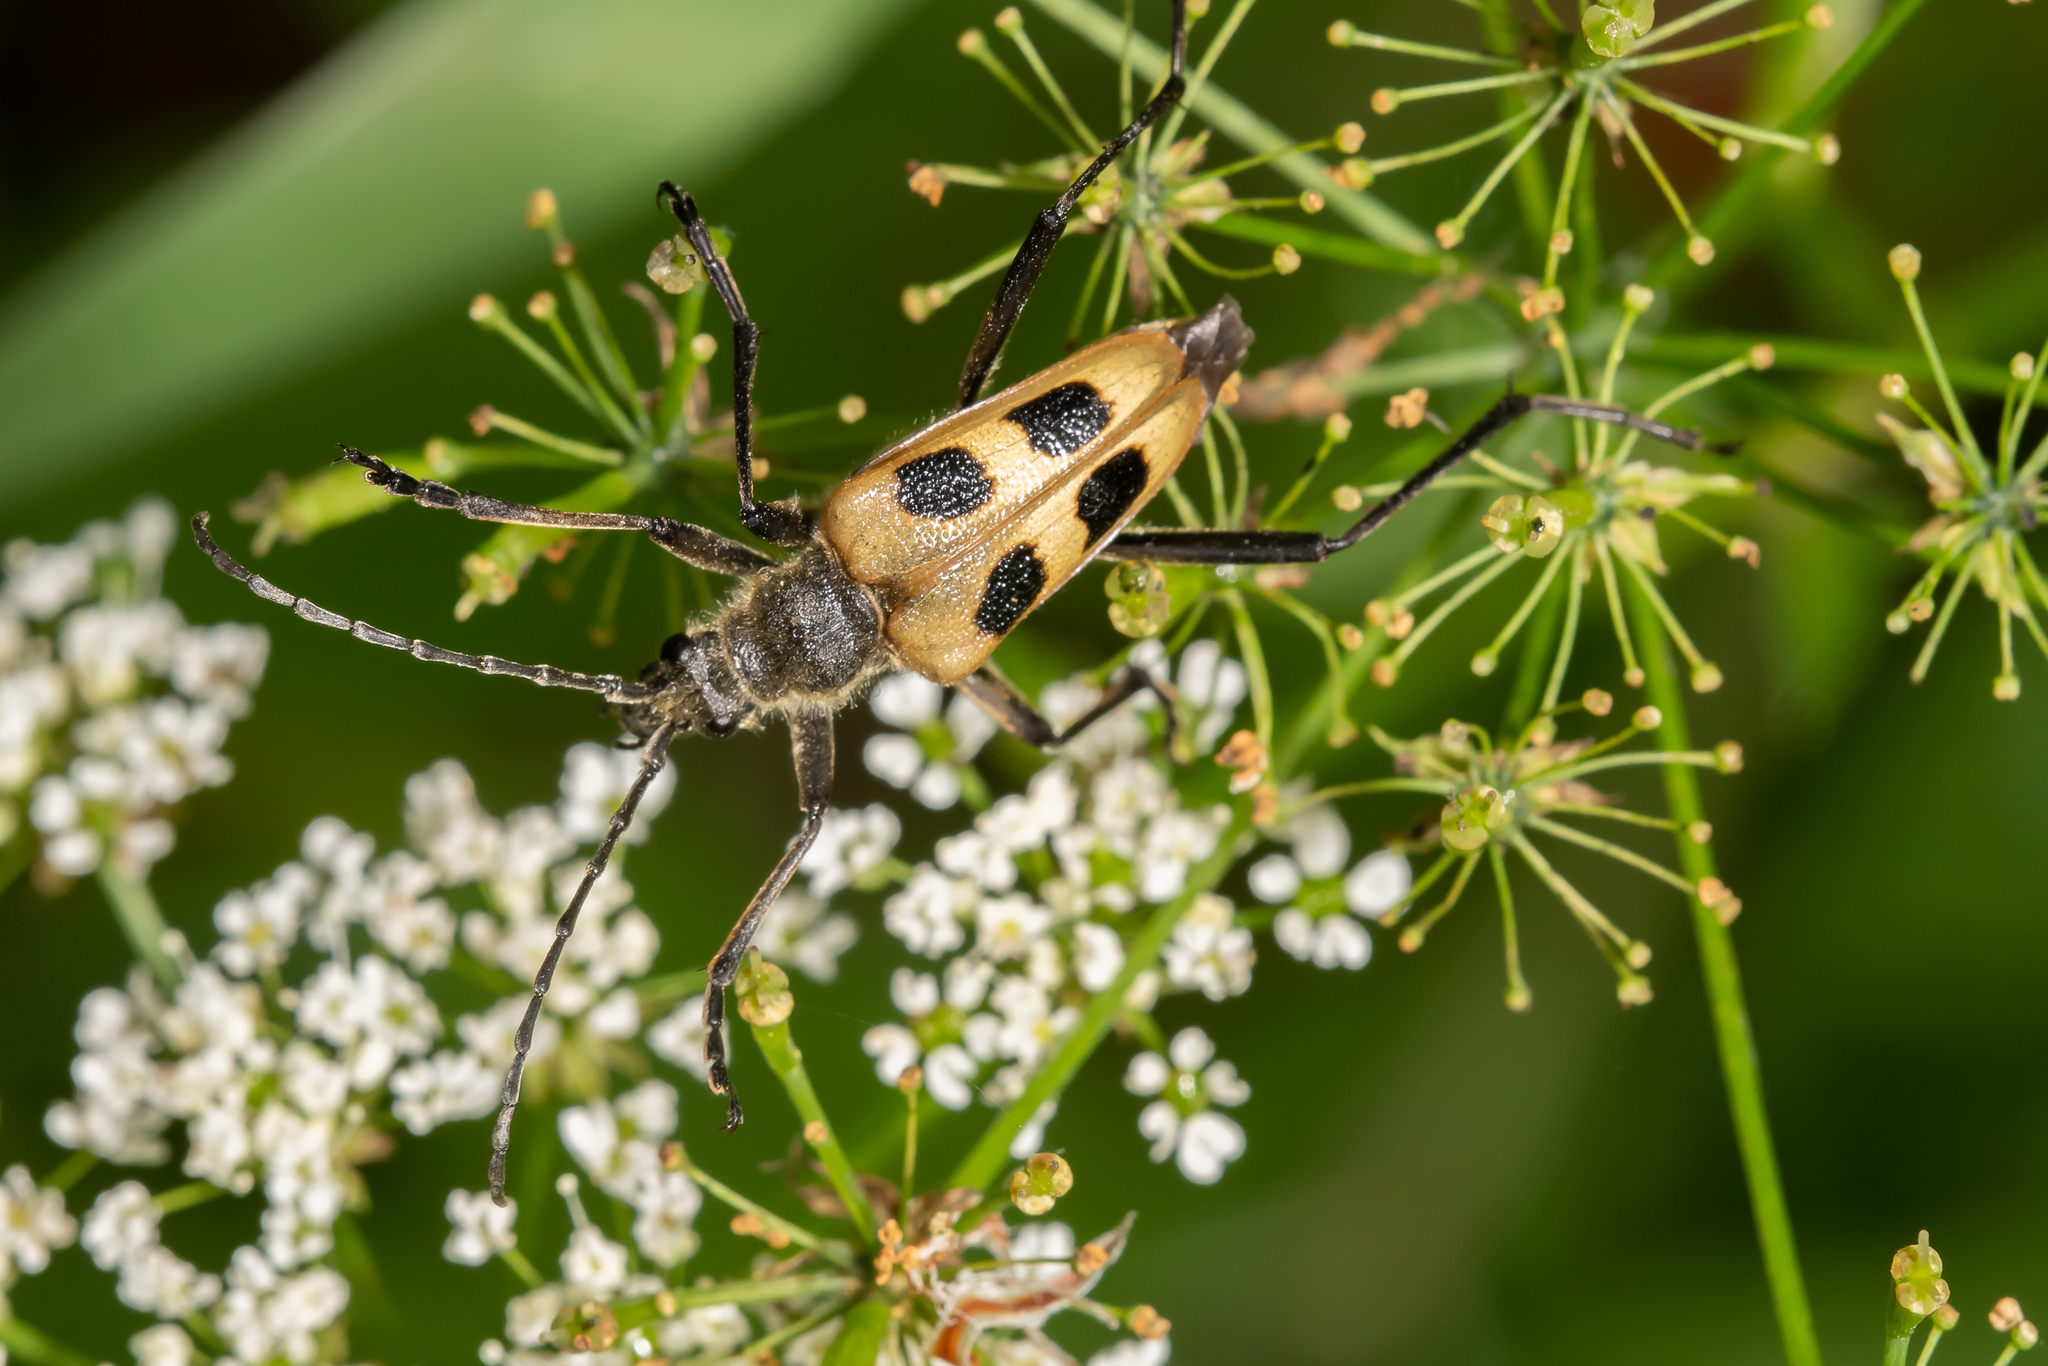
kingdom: Animalia
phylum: Arthropoda
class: Insecta
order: Coleoptera
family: Cerambycidae
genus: Pachyta
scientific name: Pachyta quadrimaculata
